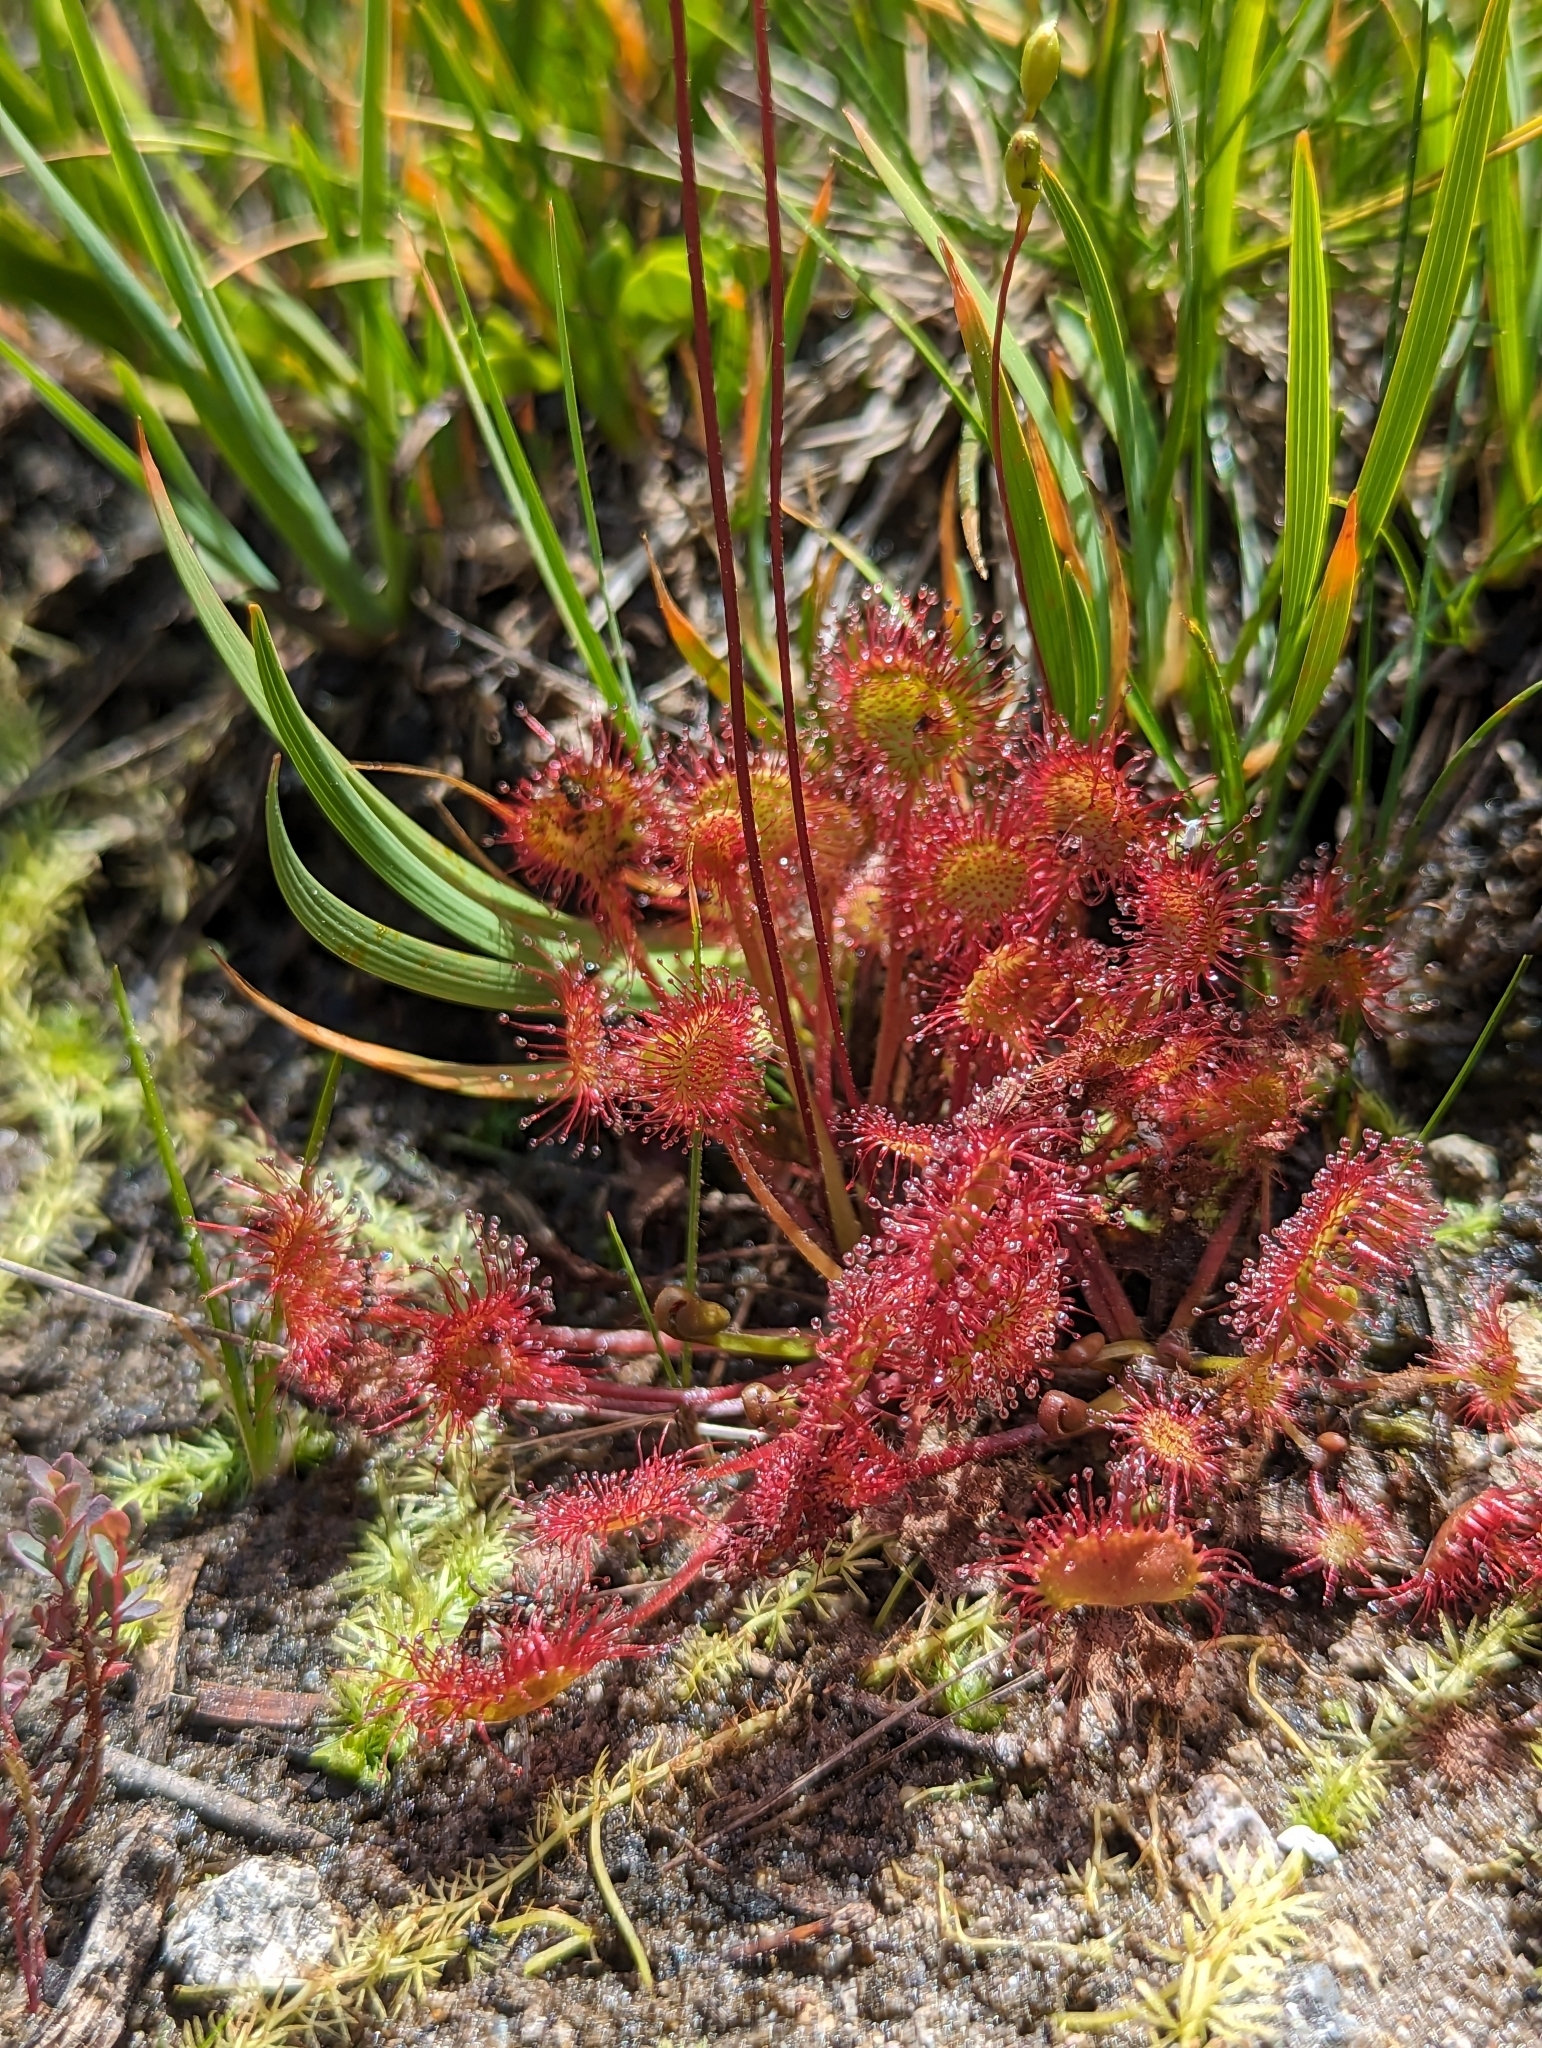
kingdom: Plantae
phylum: Tracheophyta
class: Magnoliopsida
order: Caryophyllales
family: Droseraceae
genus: Drosera
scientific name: Drosera rotundifolia
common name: Round-leaved sundew
